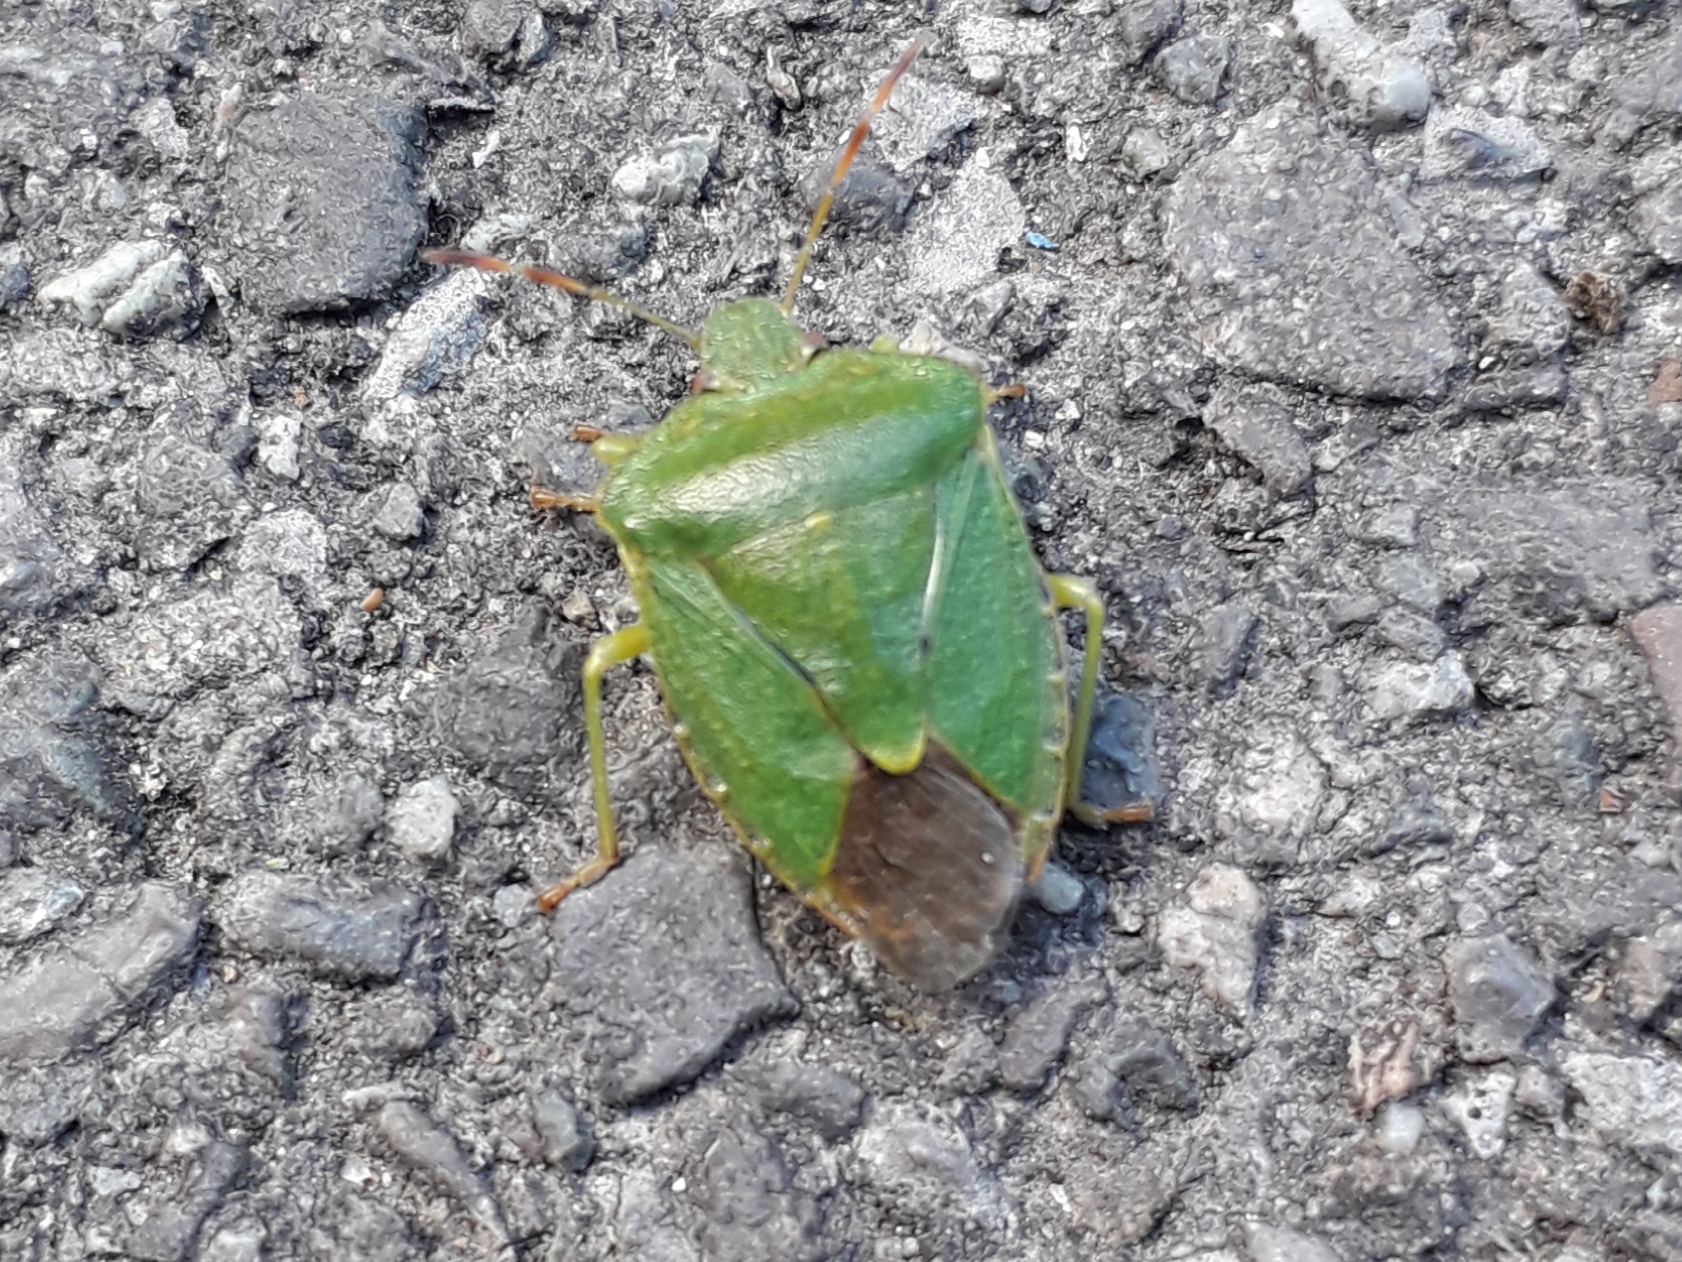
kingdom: Animalia
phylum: Arthropoda
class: Insecta
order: Hemiptera
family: Pentatomidae
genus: Palomena
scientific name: Palomena prasina
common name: Green shieldbug
